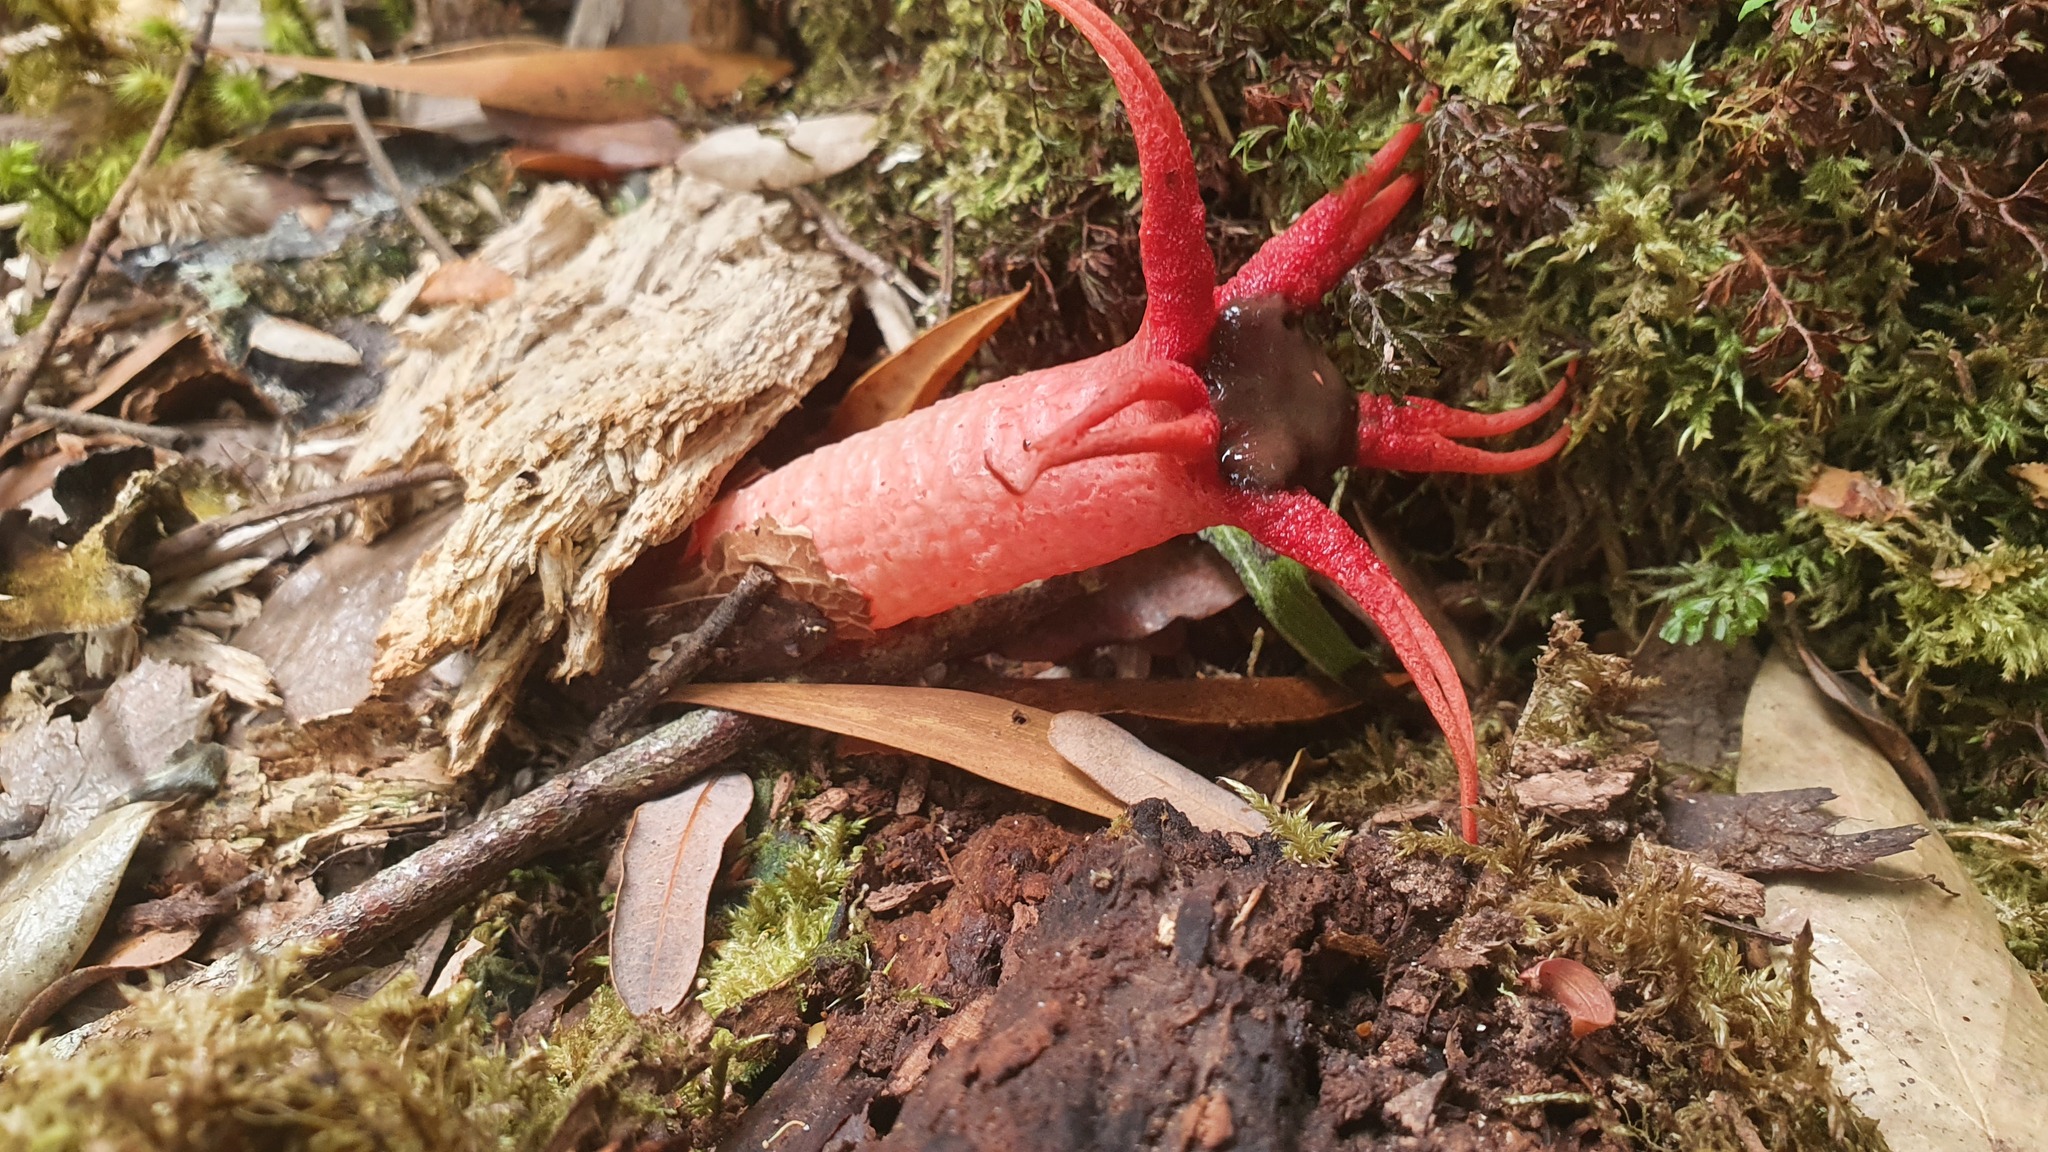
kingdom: Fungi
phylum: Basidiomycota
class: Agaricomycetes
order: Phallales
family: Phallaceae
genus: Aseroe
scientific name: Aseroe rubra
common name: Starfish fungus
